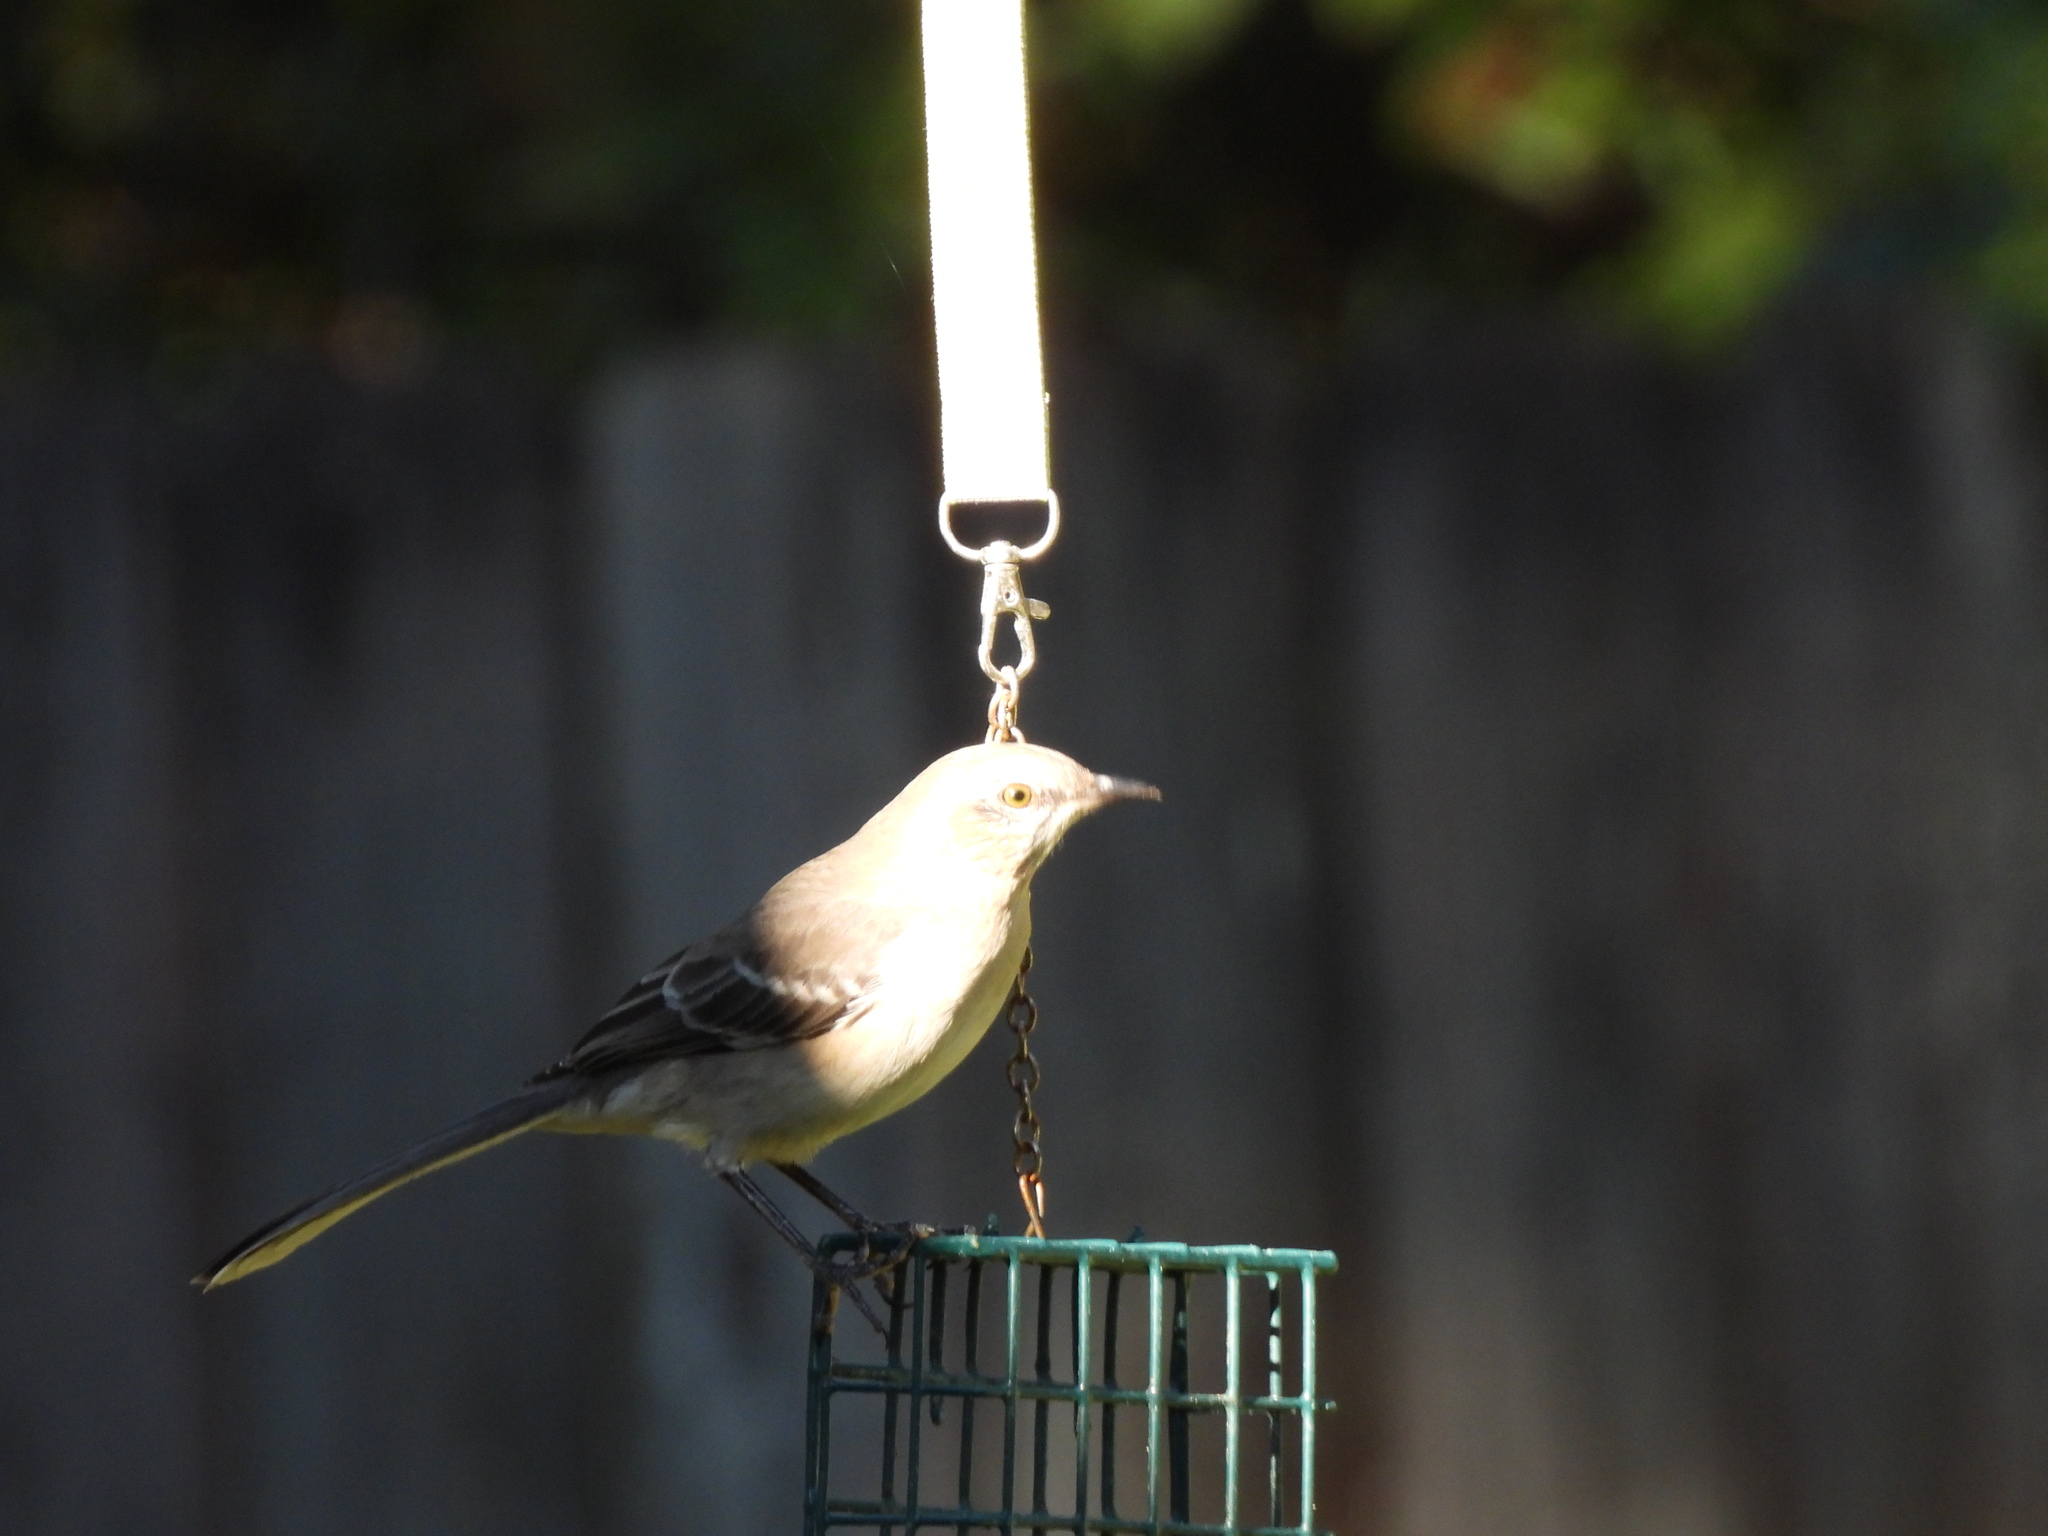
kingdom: Animalia
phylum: Chordata
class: Aves
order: Passeriformes
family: Mimidae
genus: Mimus
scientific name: Mimus polyglottos
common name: Northern mockingbird
